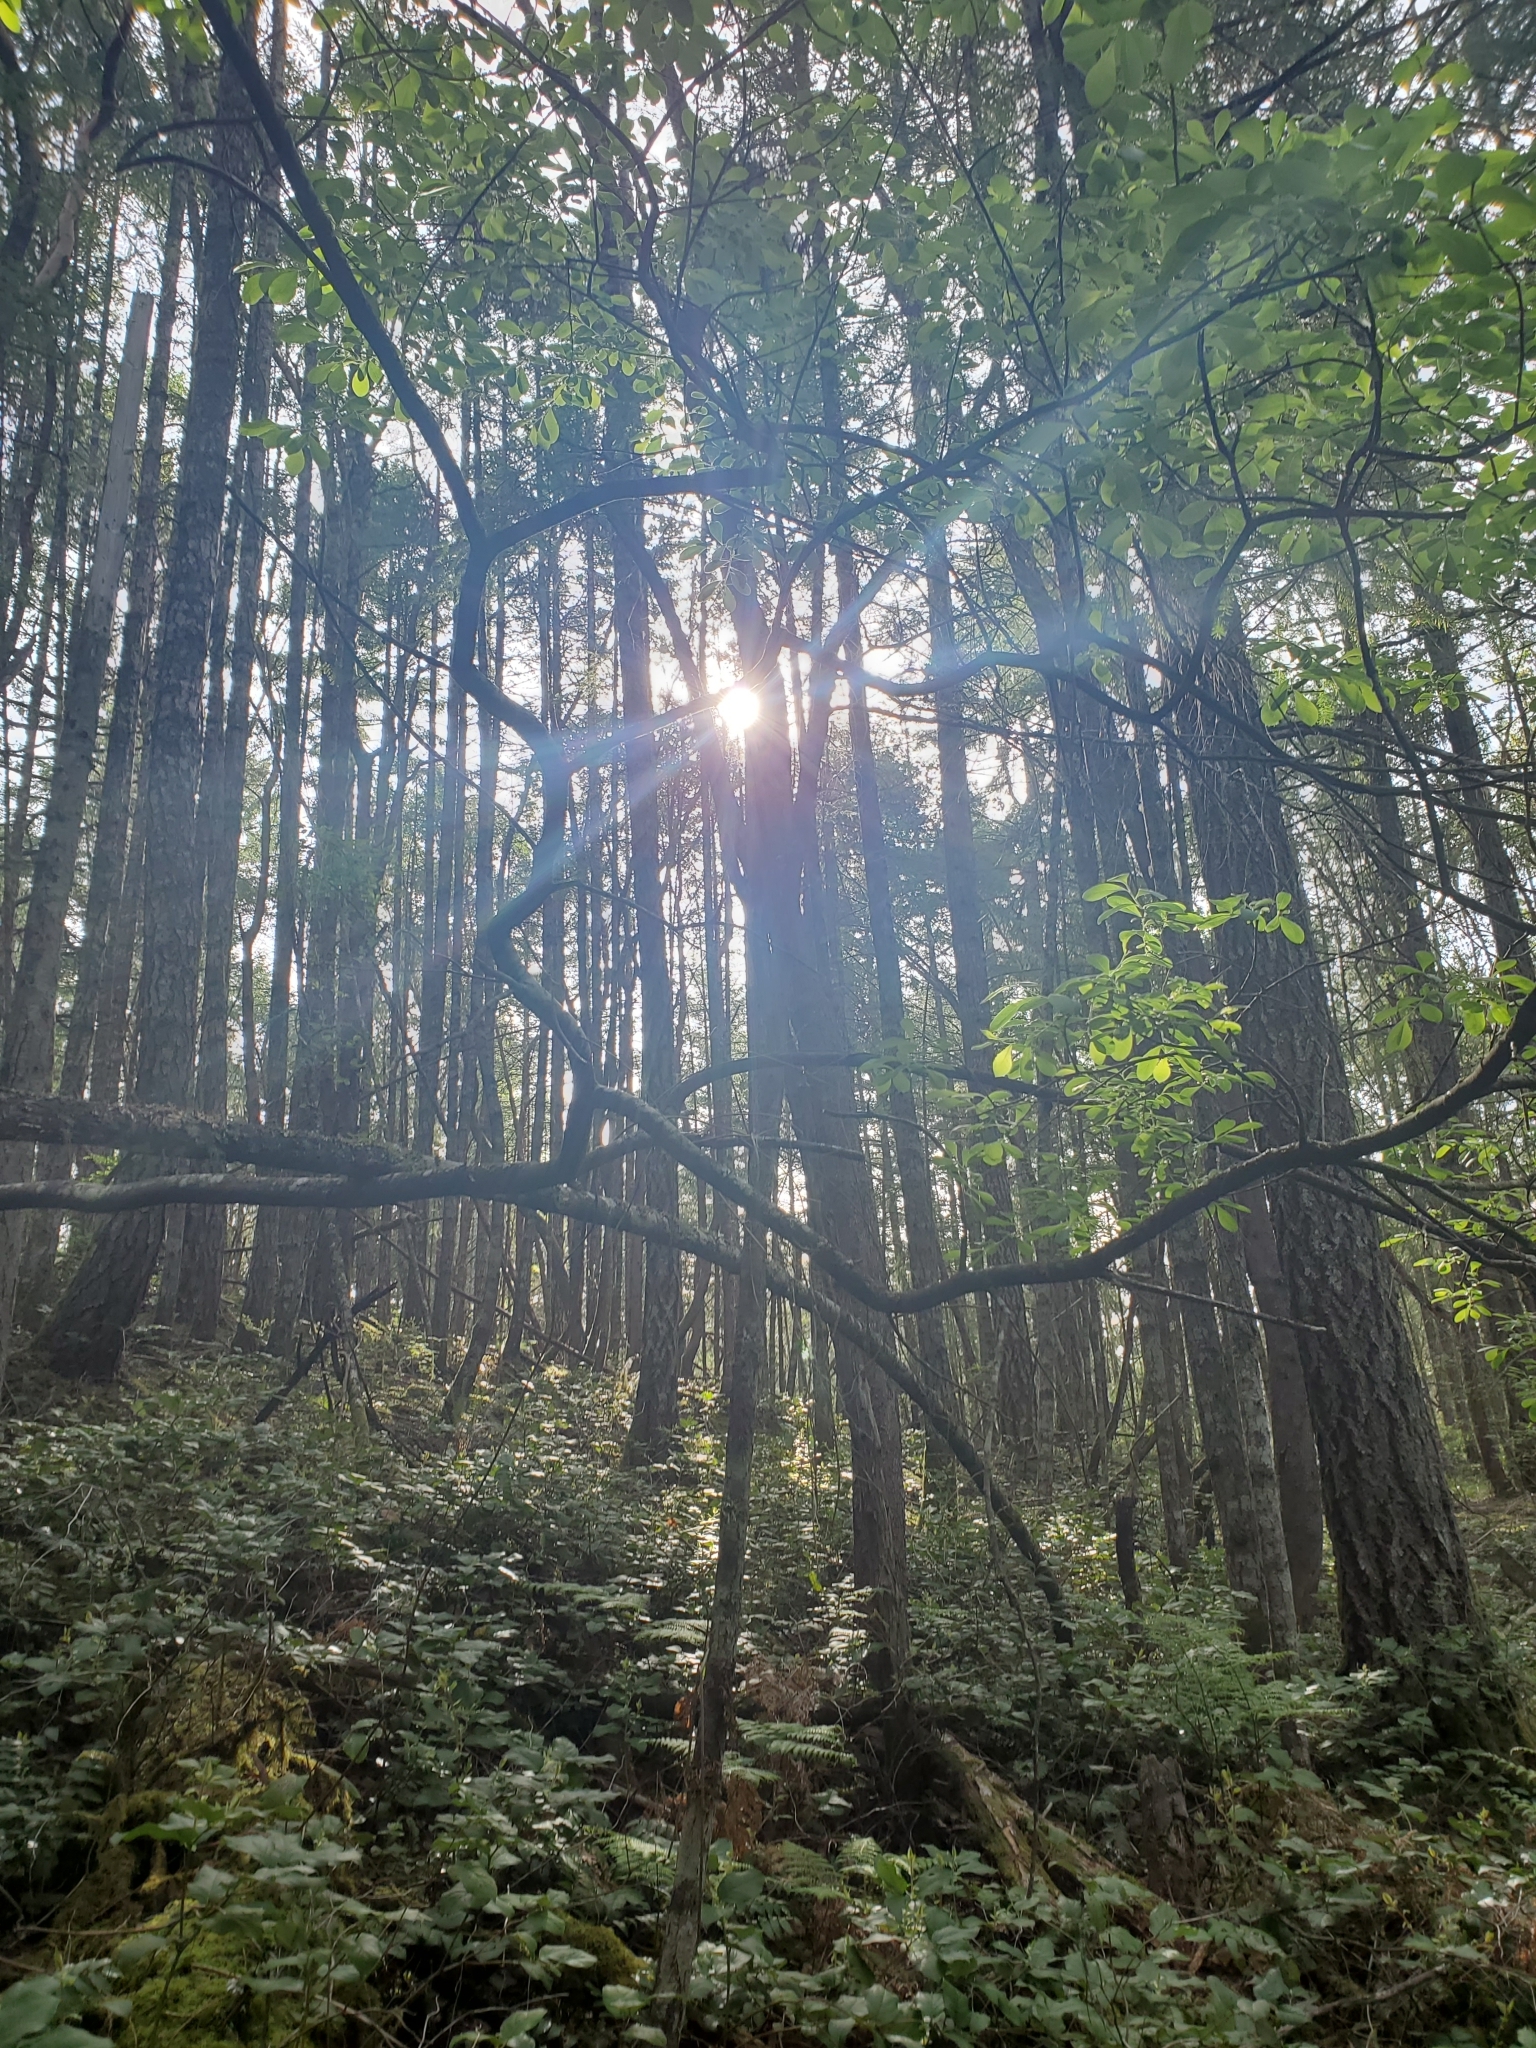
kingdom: Plantae
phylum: Tracheophyta
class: Magnoliopsida
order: Malpighiales
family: Salicaceae
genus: Salix
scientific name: Salix scouleriana
